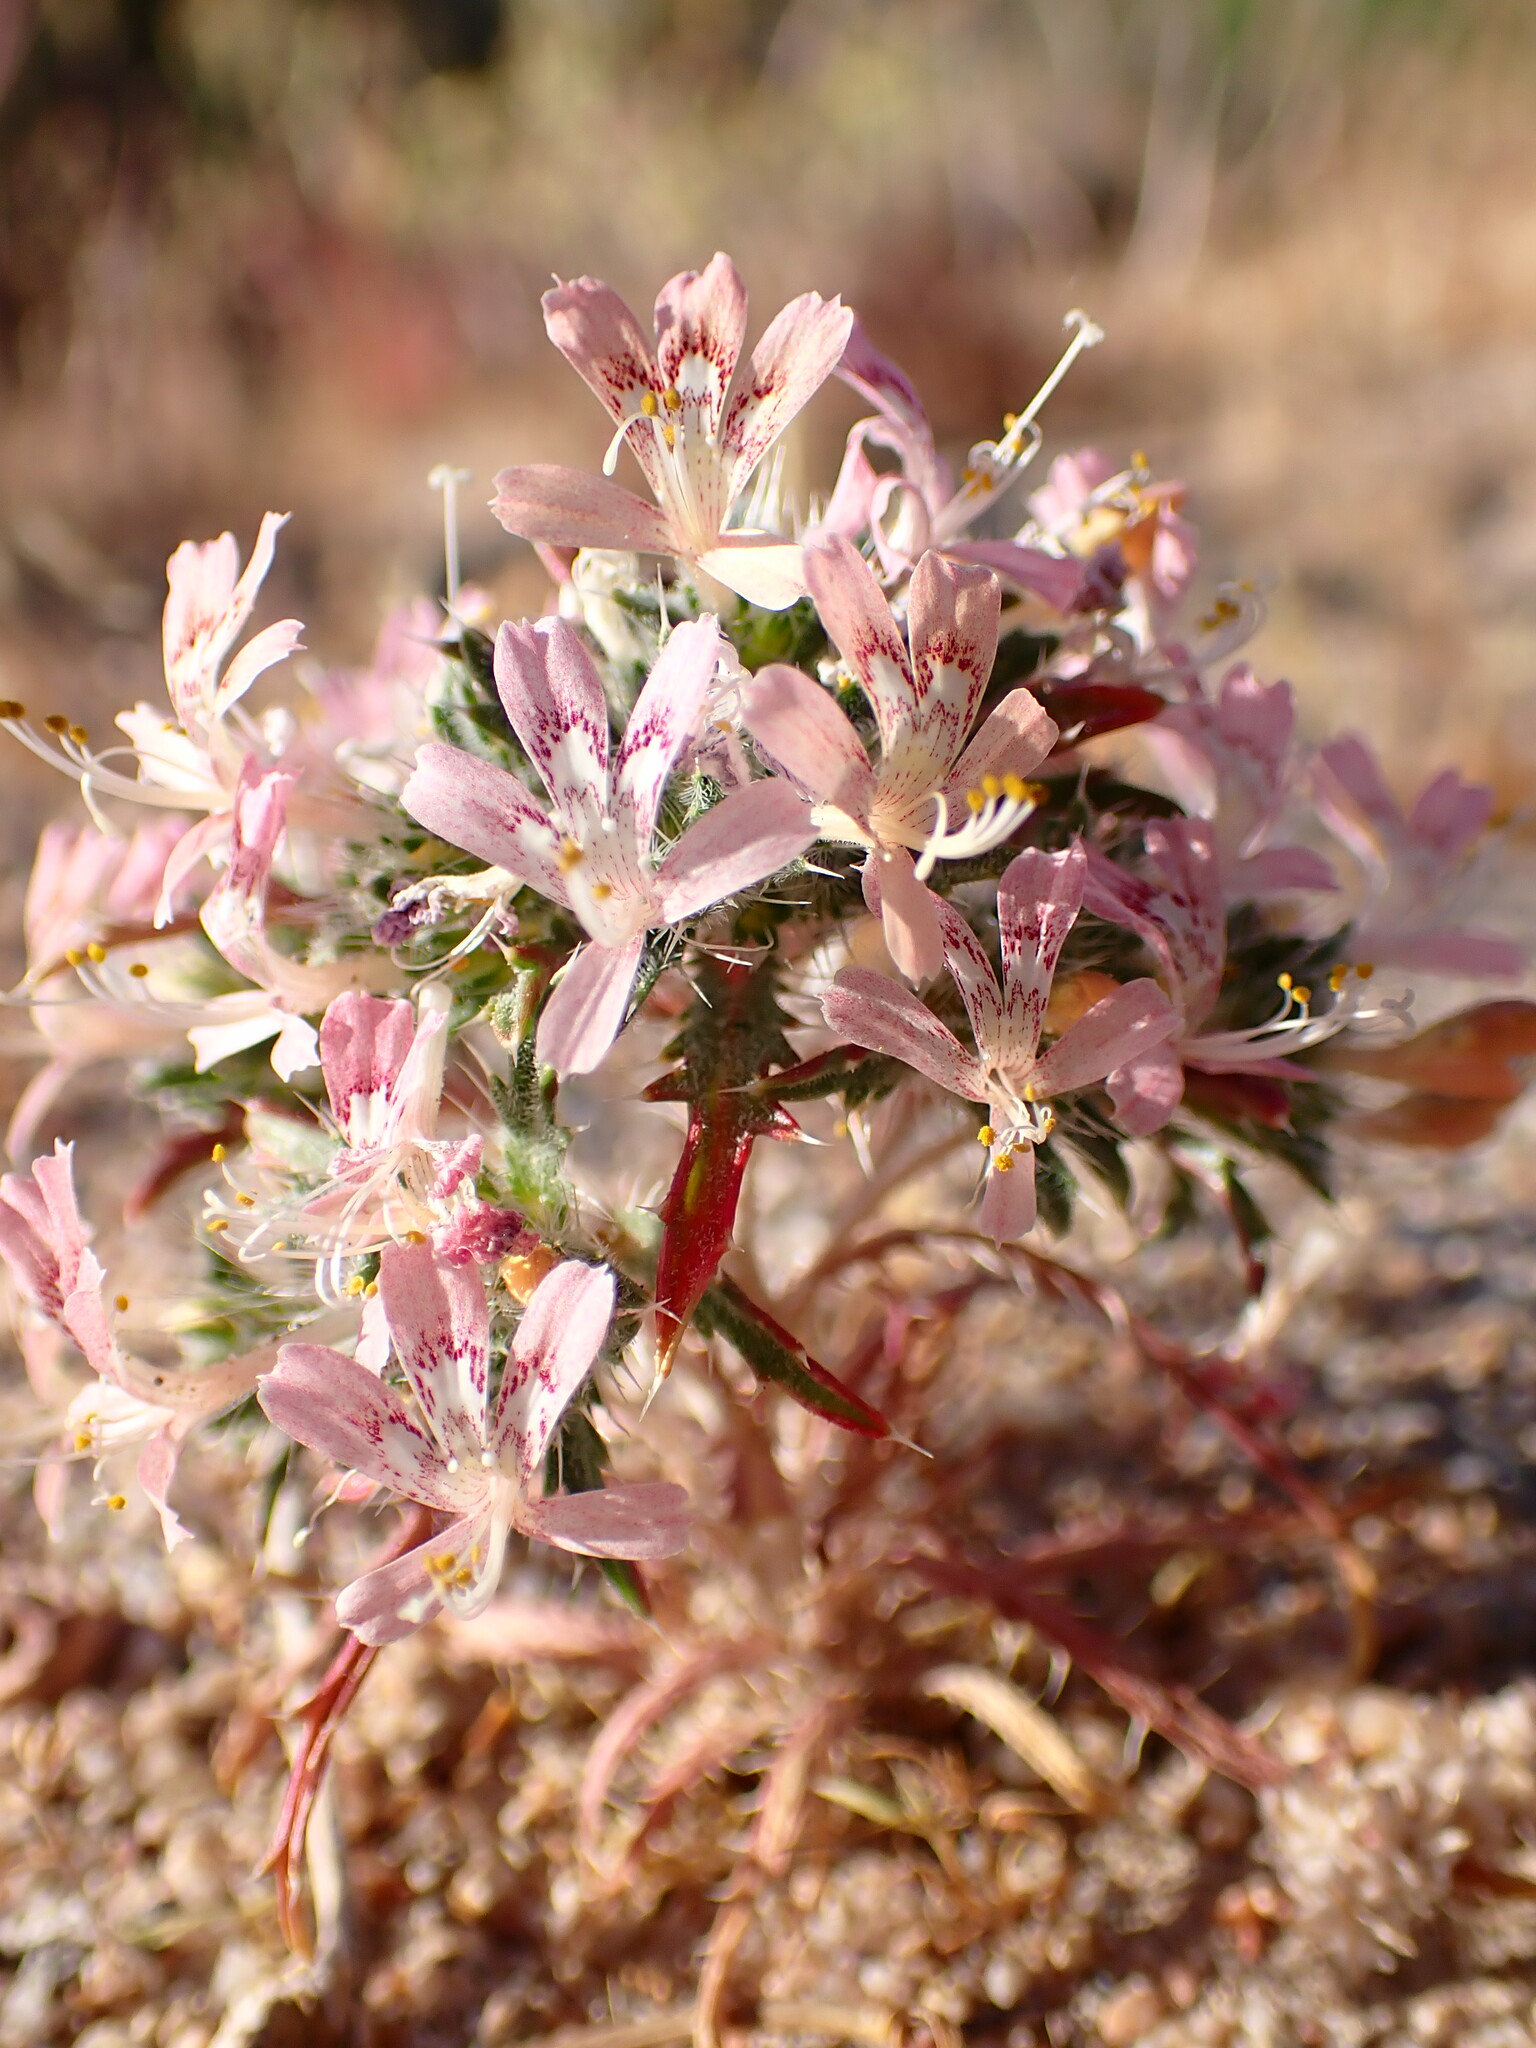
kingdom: Plantae
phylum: Tracheophyta
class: Magnoliopsida
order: Ericales
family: Polemoniaceae
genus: Loeseliastrum
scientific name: Loeseliastrum matthewsii
